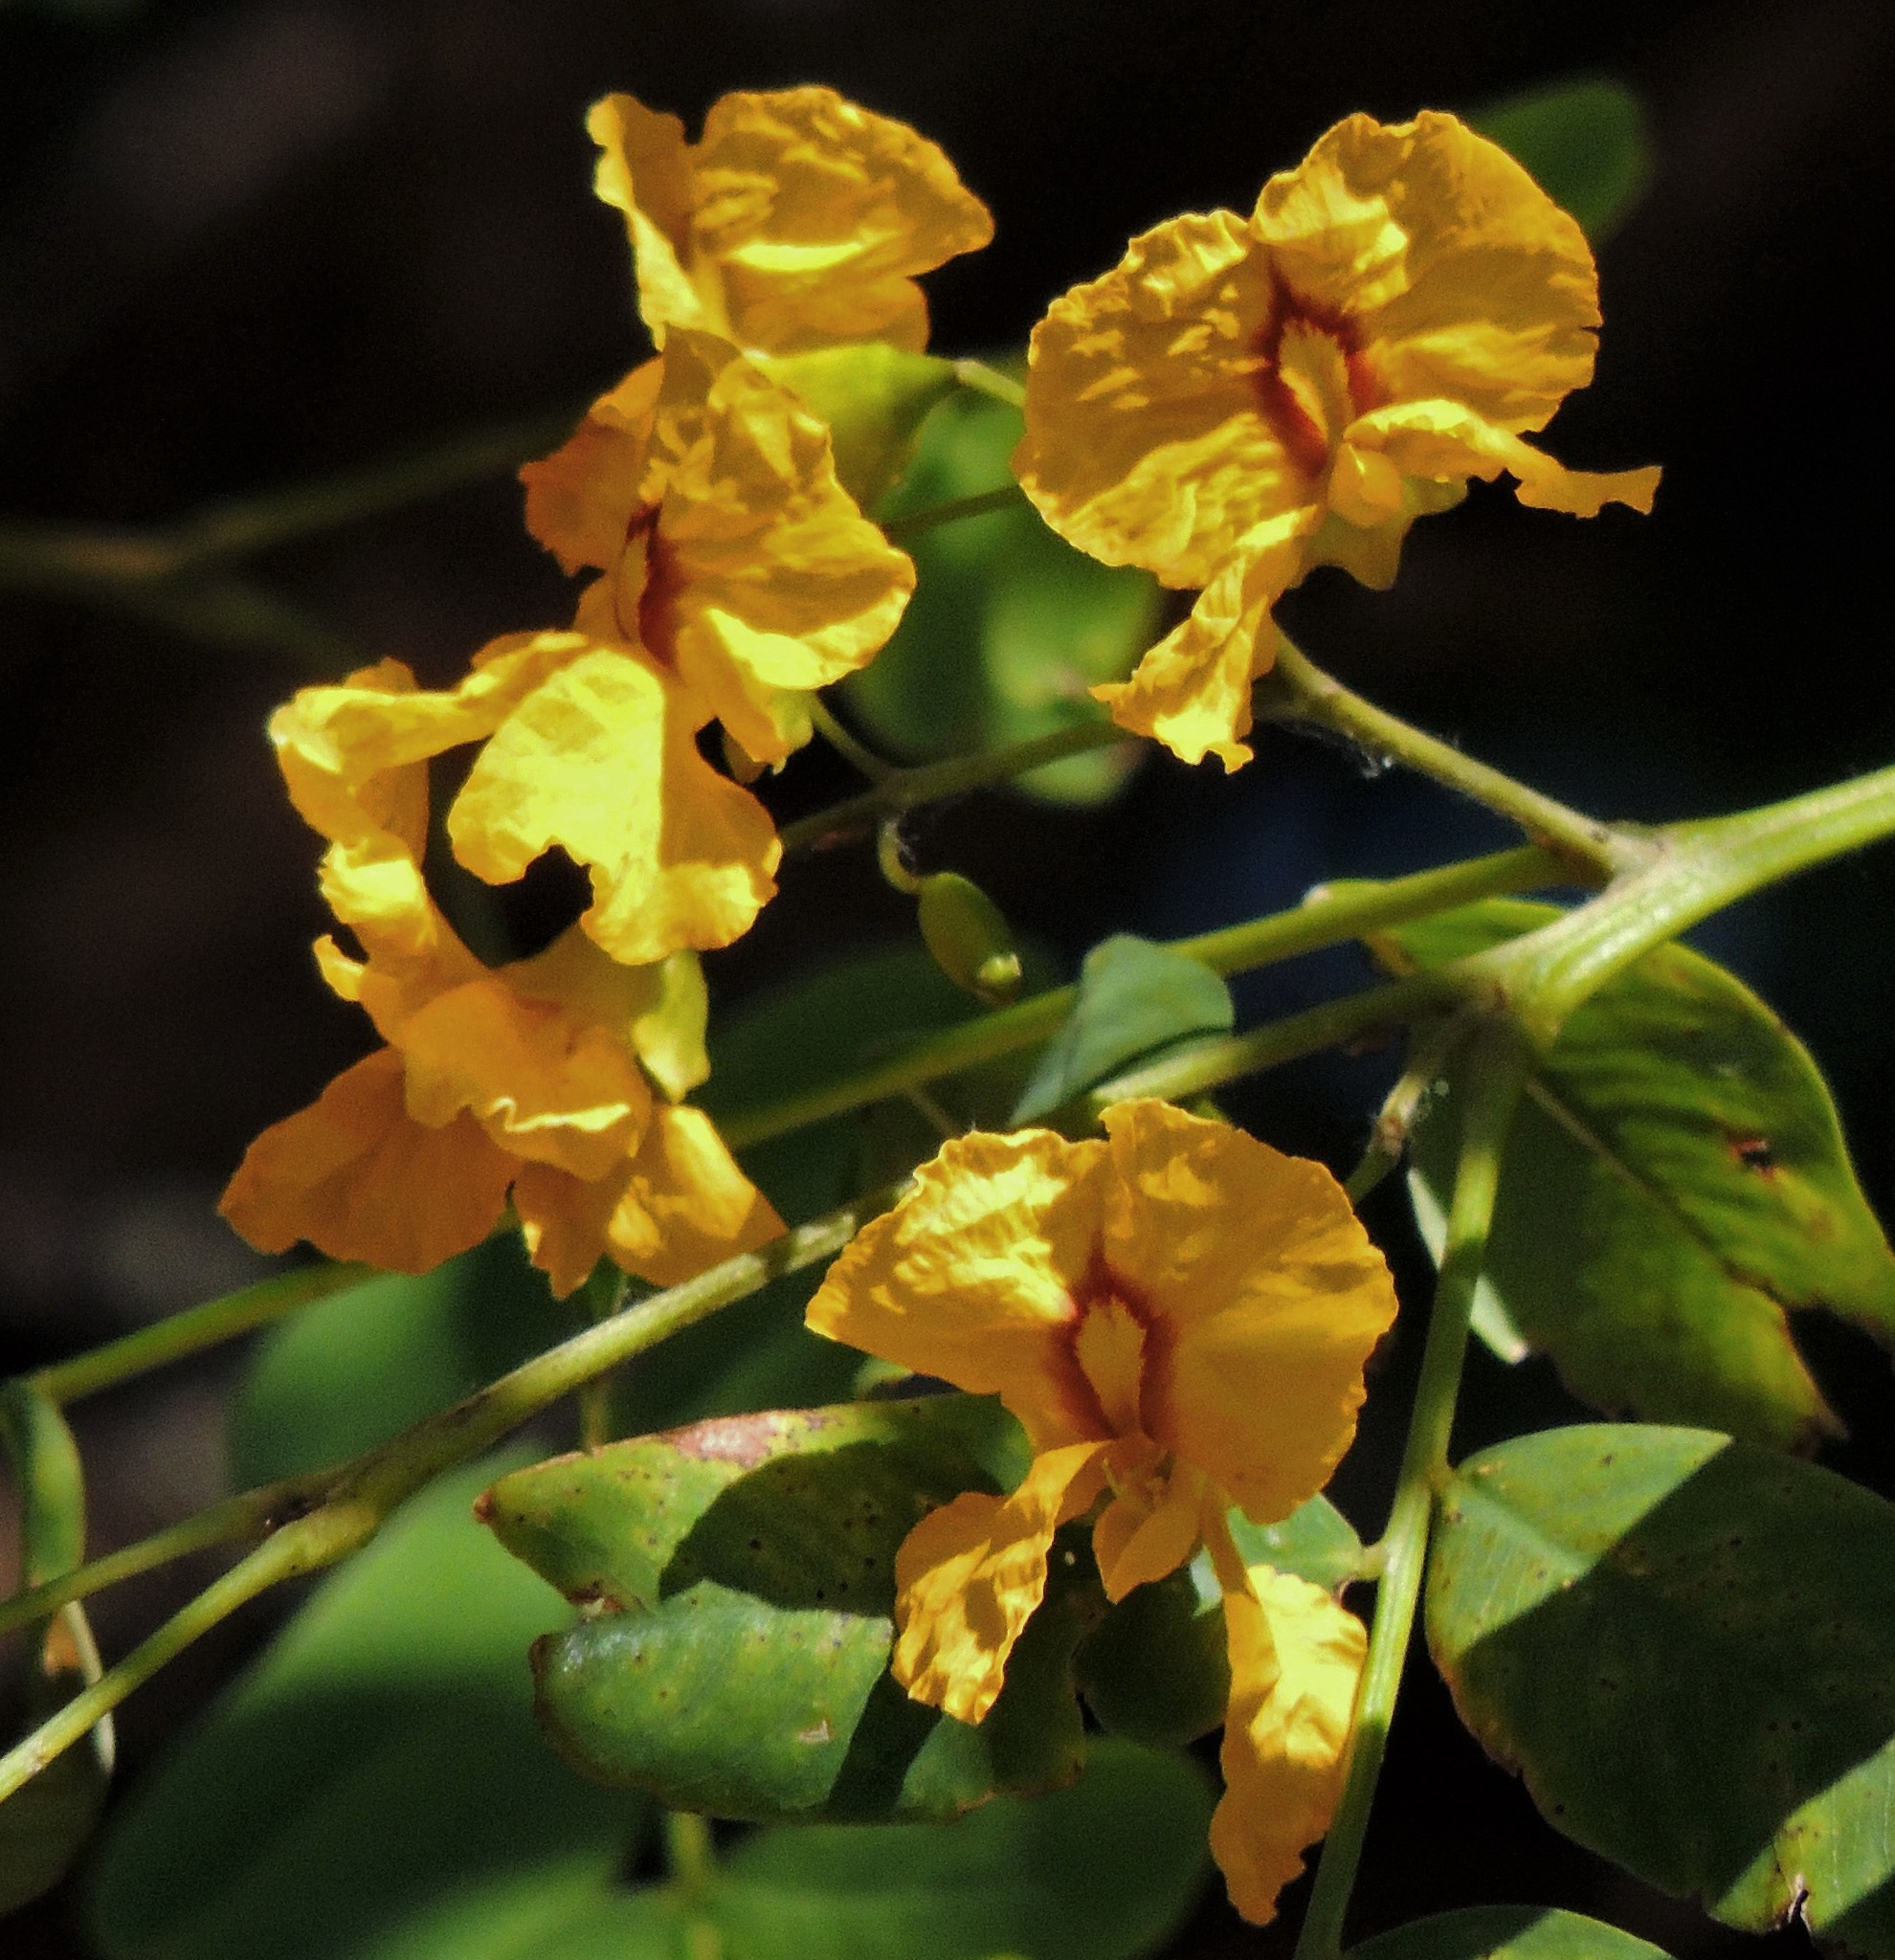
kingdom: Plantae
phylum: Tracheophyta
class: Magnoliopsida
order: Fabales
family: Fabaceae
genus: Tipuana
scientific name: Tipuana tipu
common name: Tiputree
